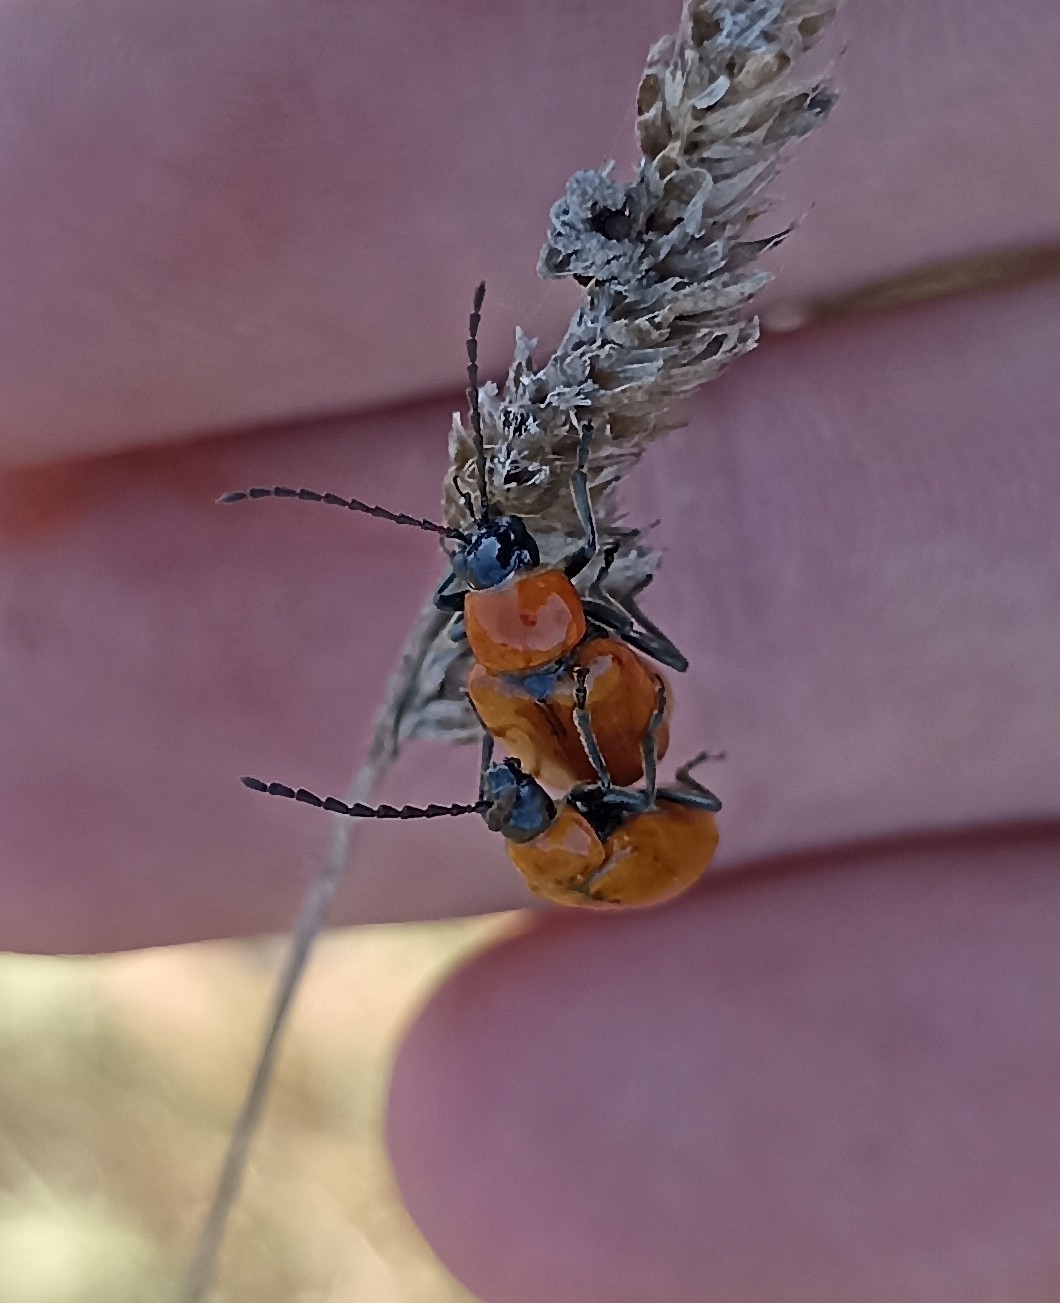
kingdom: Animalia
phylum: Arthropoda
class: Insecta
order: Coleoptera
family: Chrysomelidae
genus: Exosoma
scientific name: Exosoma lusitanicum
